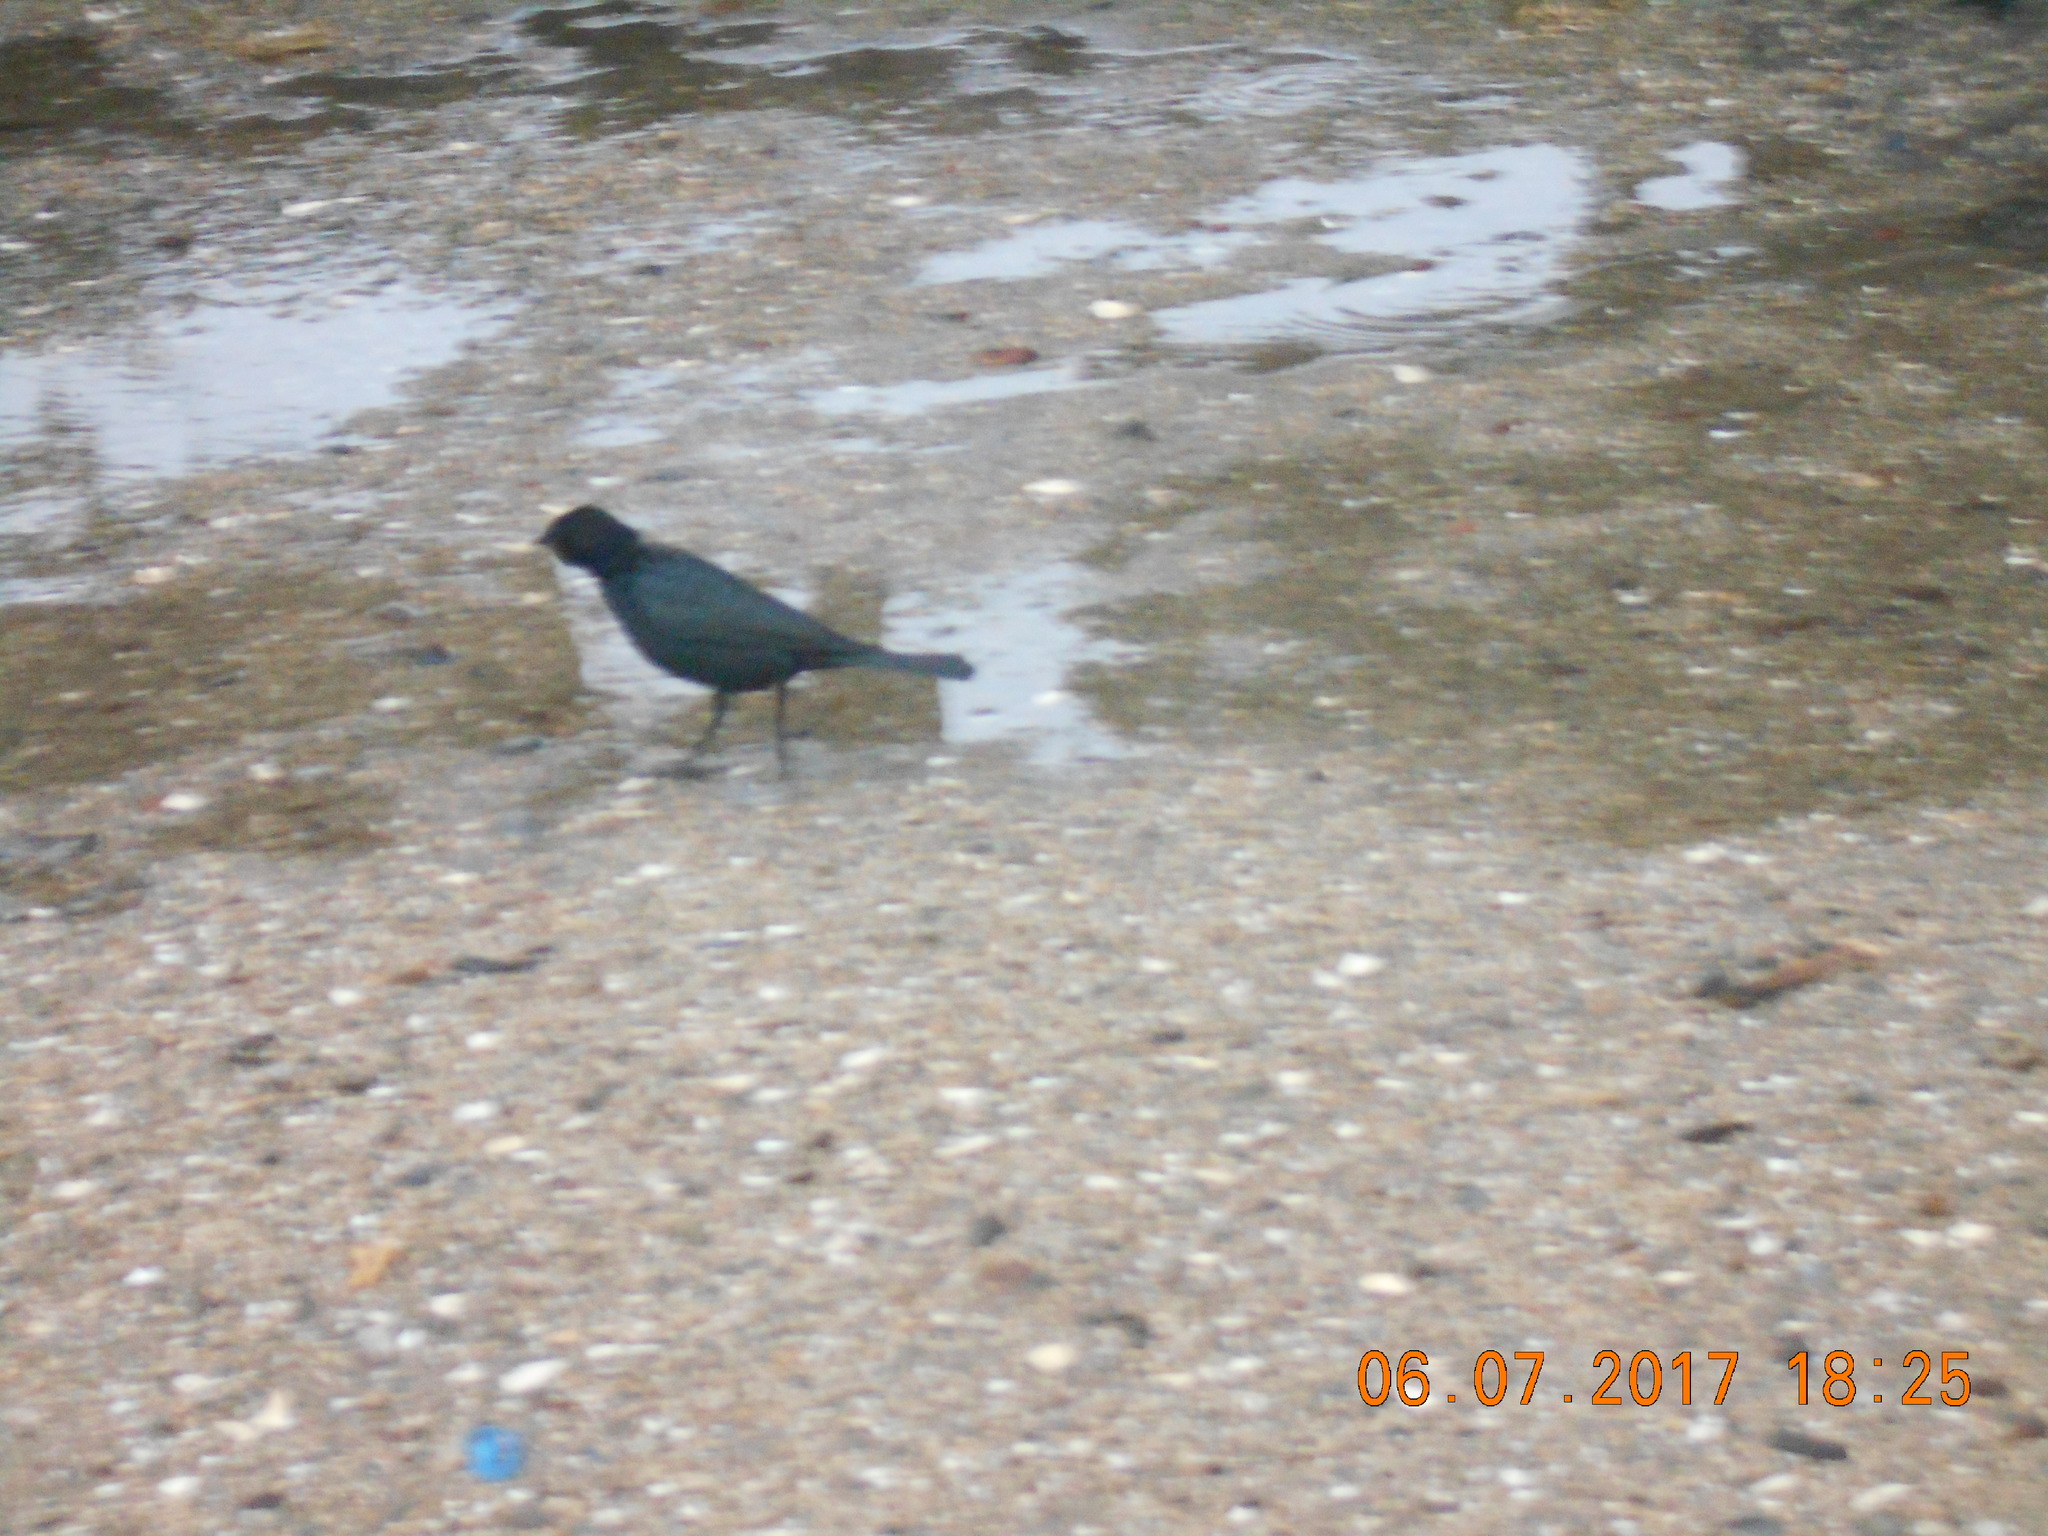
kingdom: Animalia
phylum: Chordata
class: Aves
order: Passeriformes
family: Icteridae
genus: Euphagus
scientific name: Euphagus cyanocephalus
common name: Brewer's blackbird
